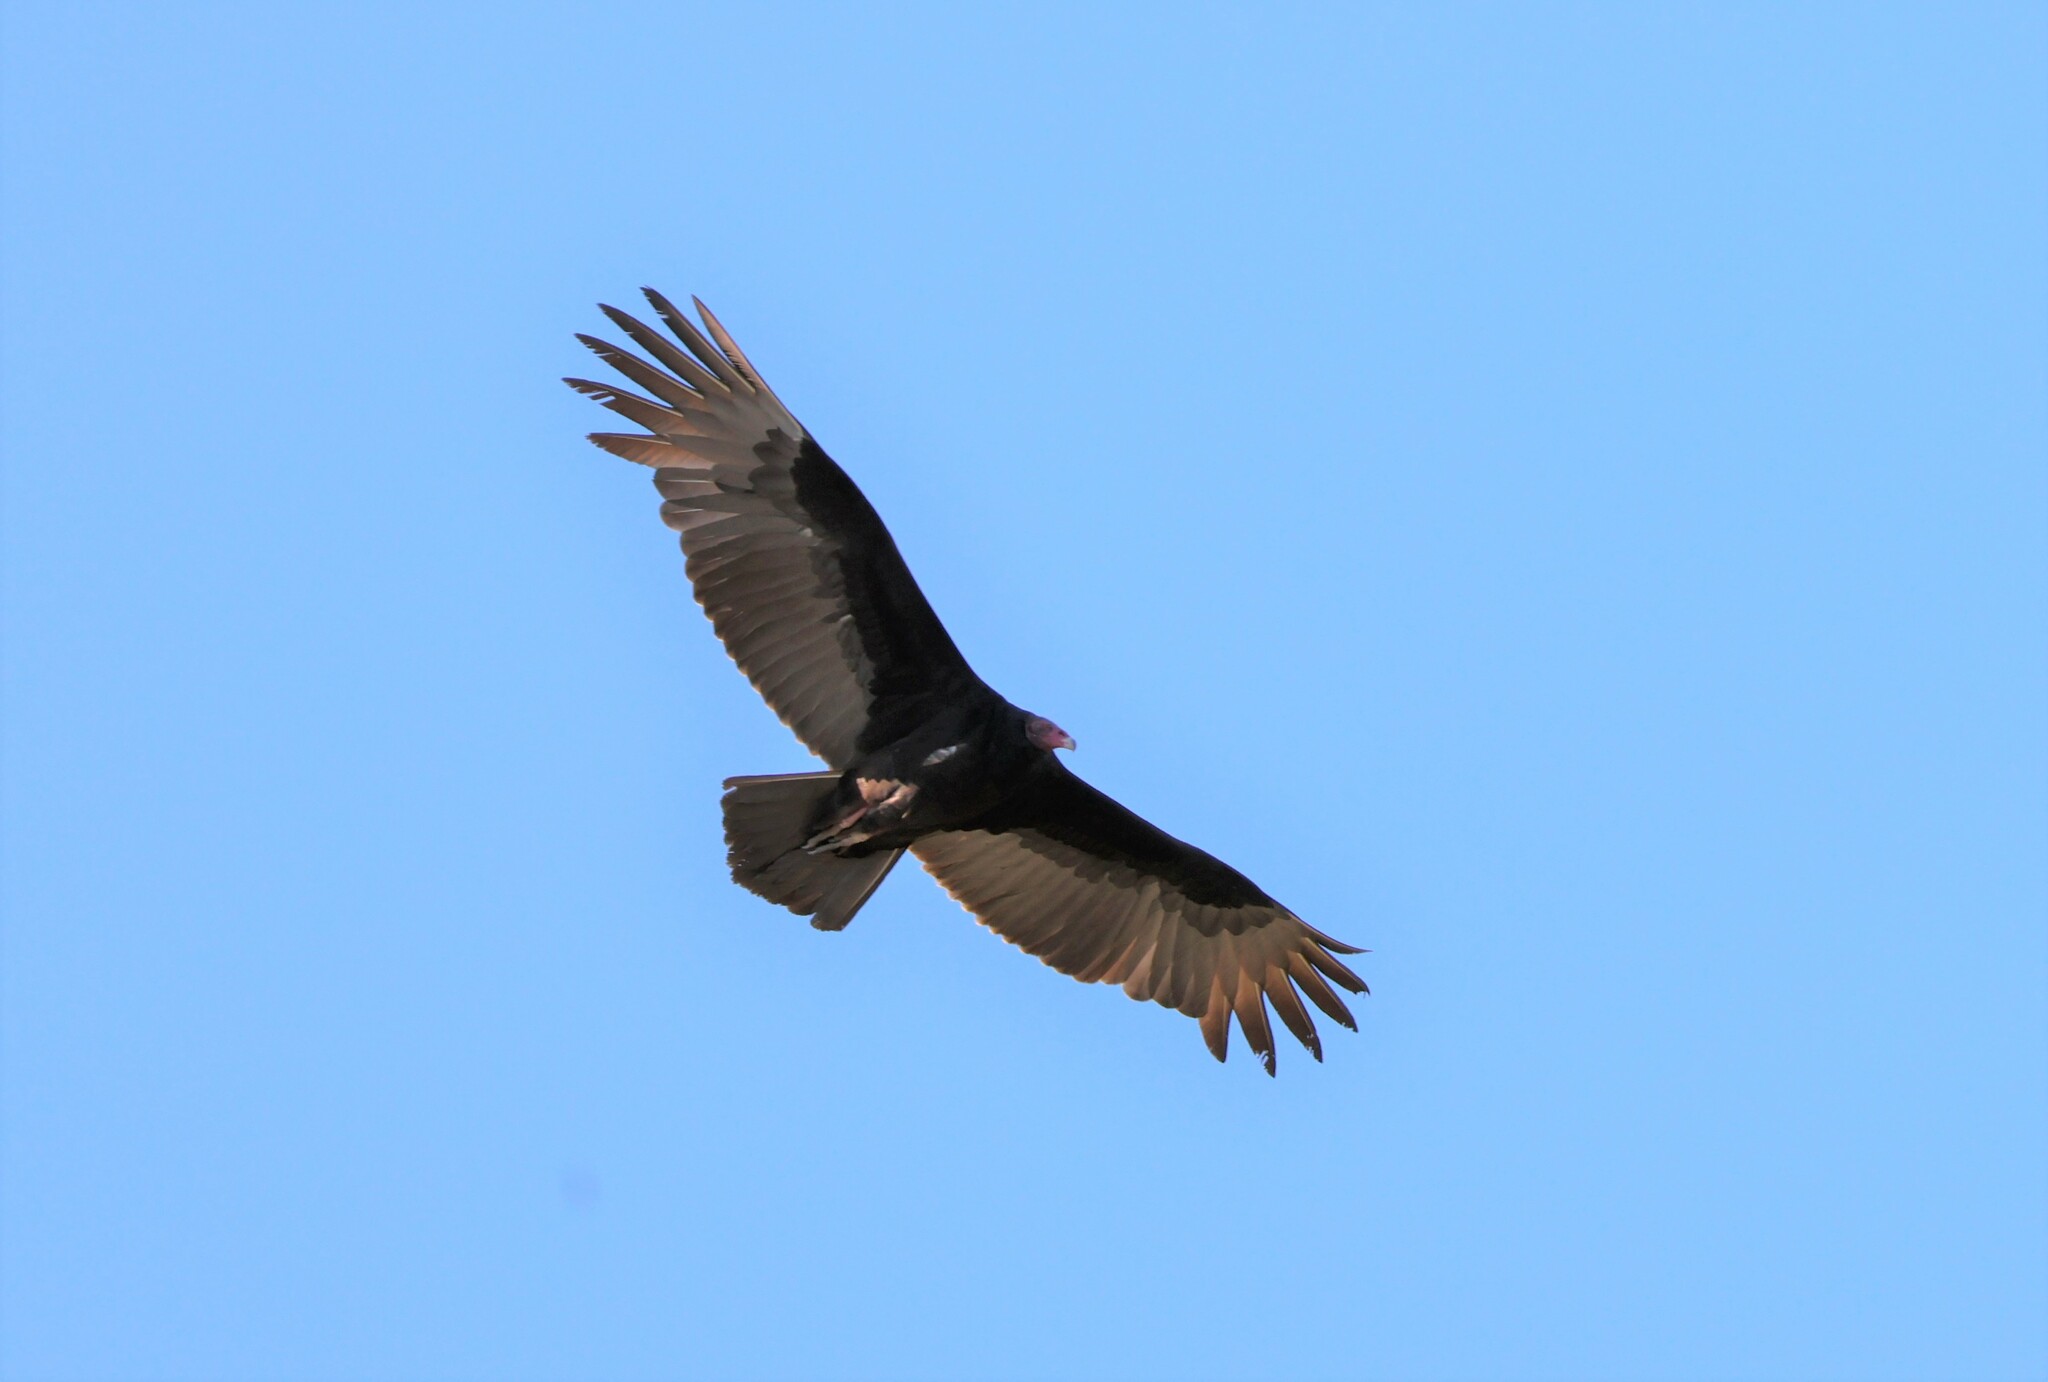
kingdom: Animalia
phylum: Chordata
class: Aves
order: Accipitriformes
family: Cathartidae
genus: Cathartes
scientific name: Cathartes aura
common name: Turkey vulture
